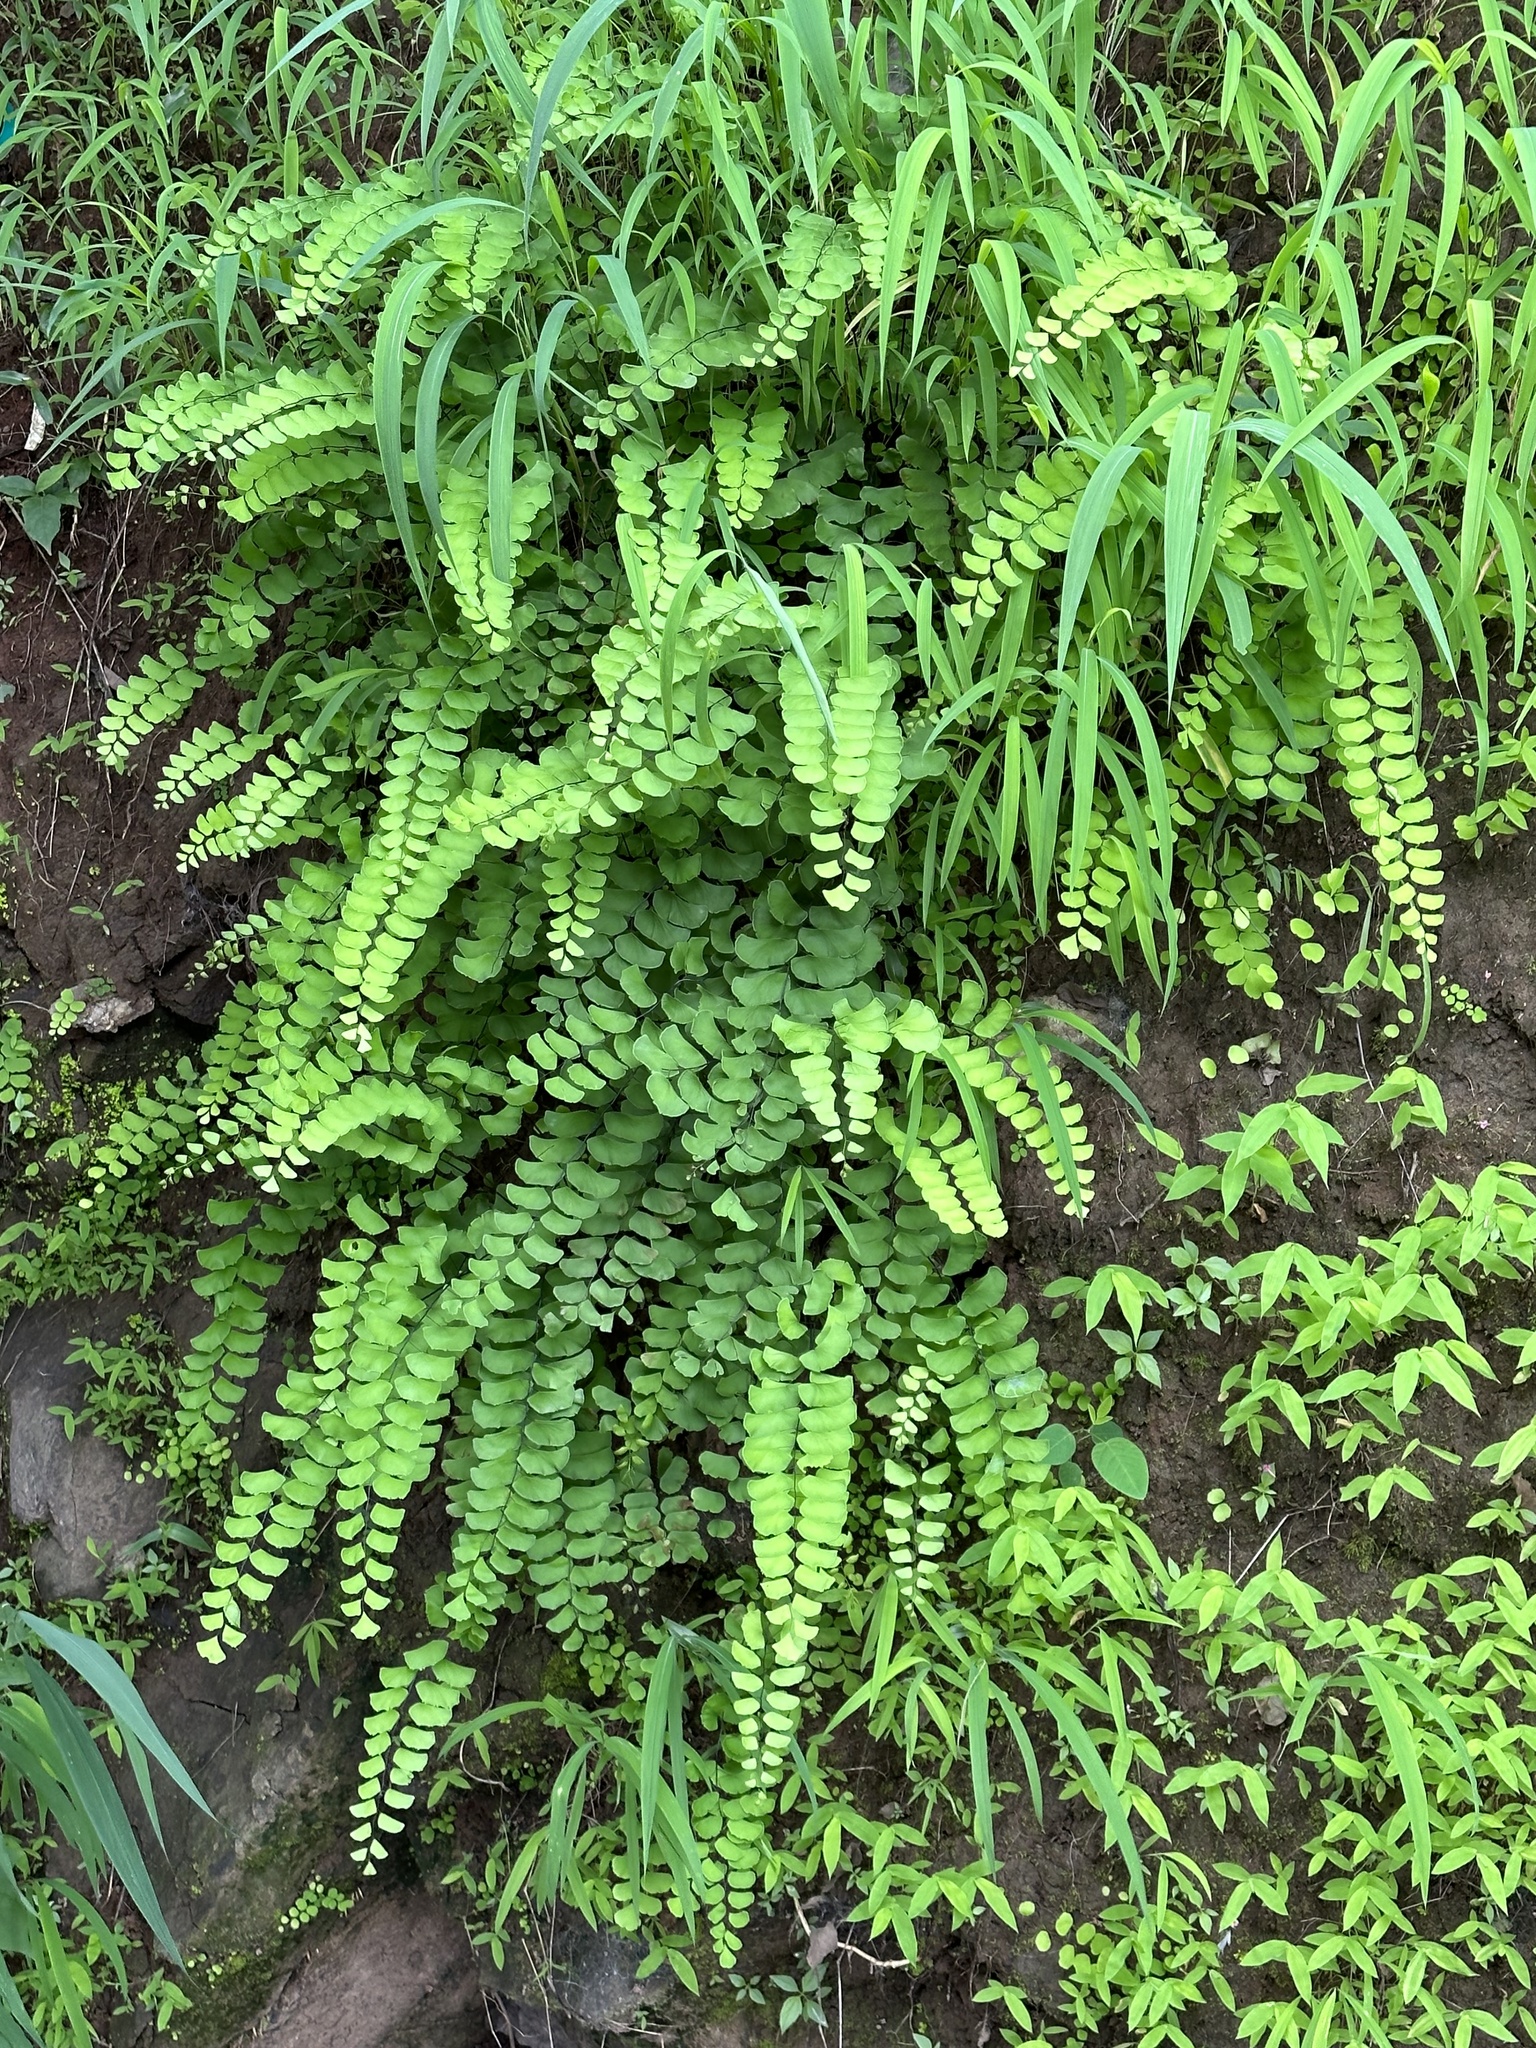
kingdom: Plantae
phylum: Tracheophyta
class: Polypodiopsida
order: Polypodiales
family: Pteridaceae
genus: Adiantum
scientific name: Adiantum philippense
